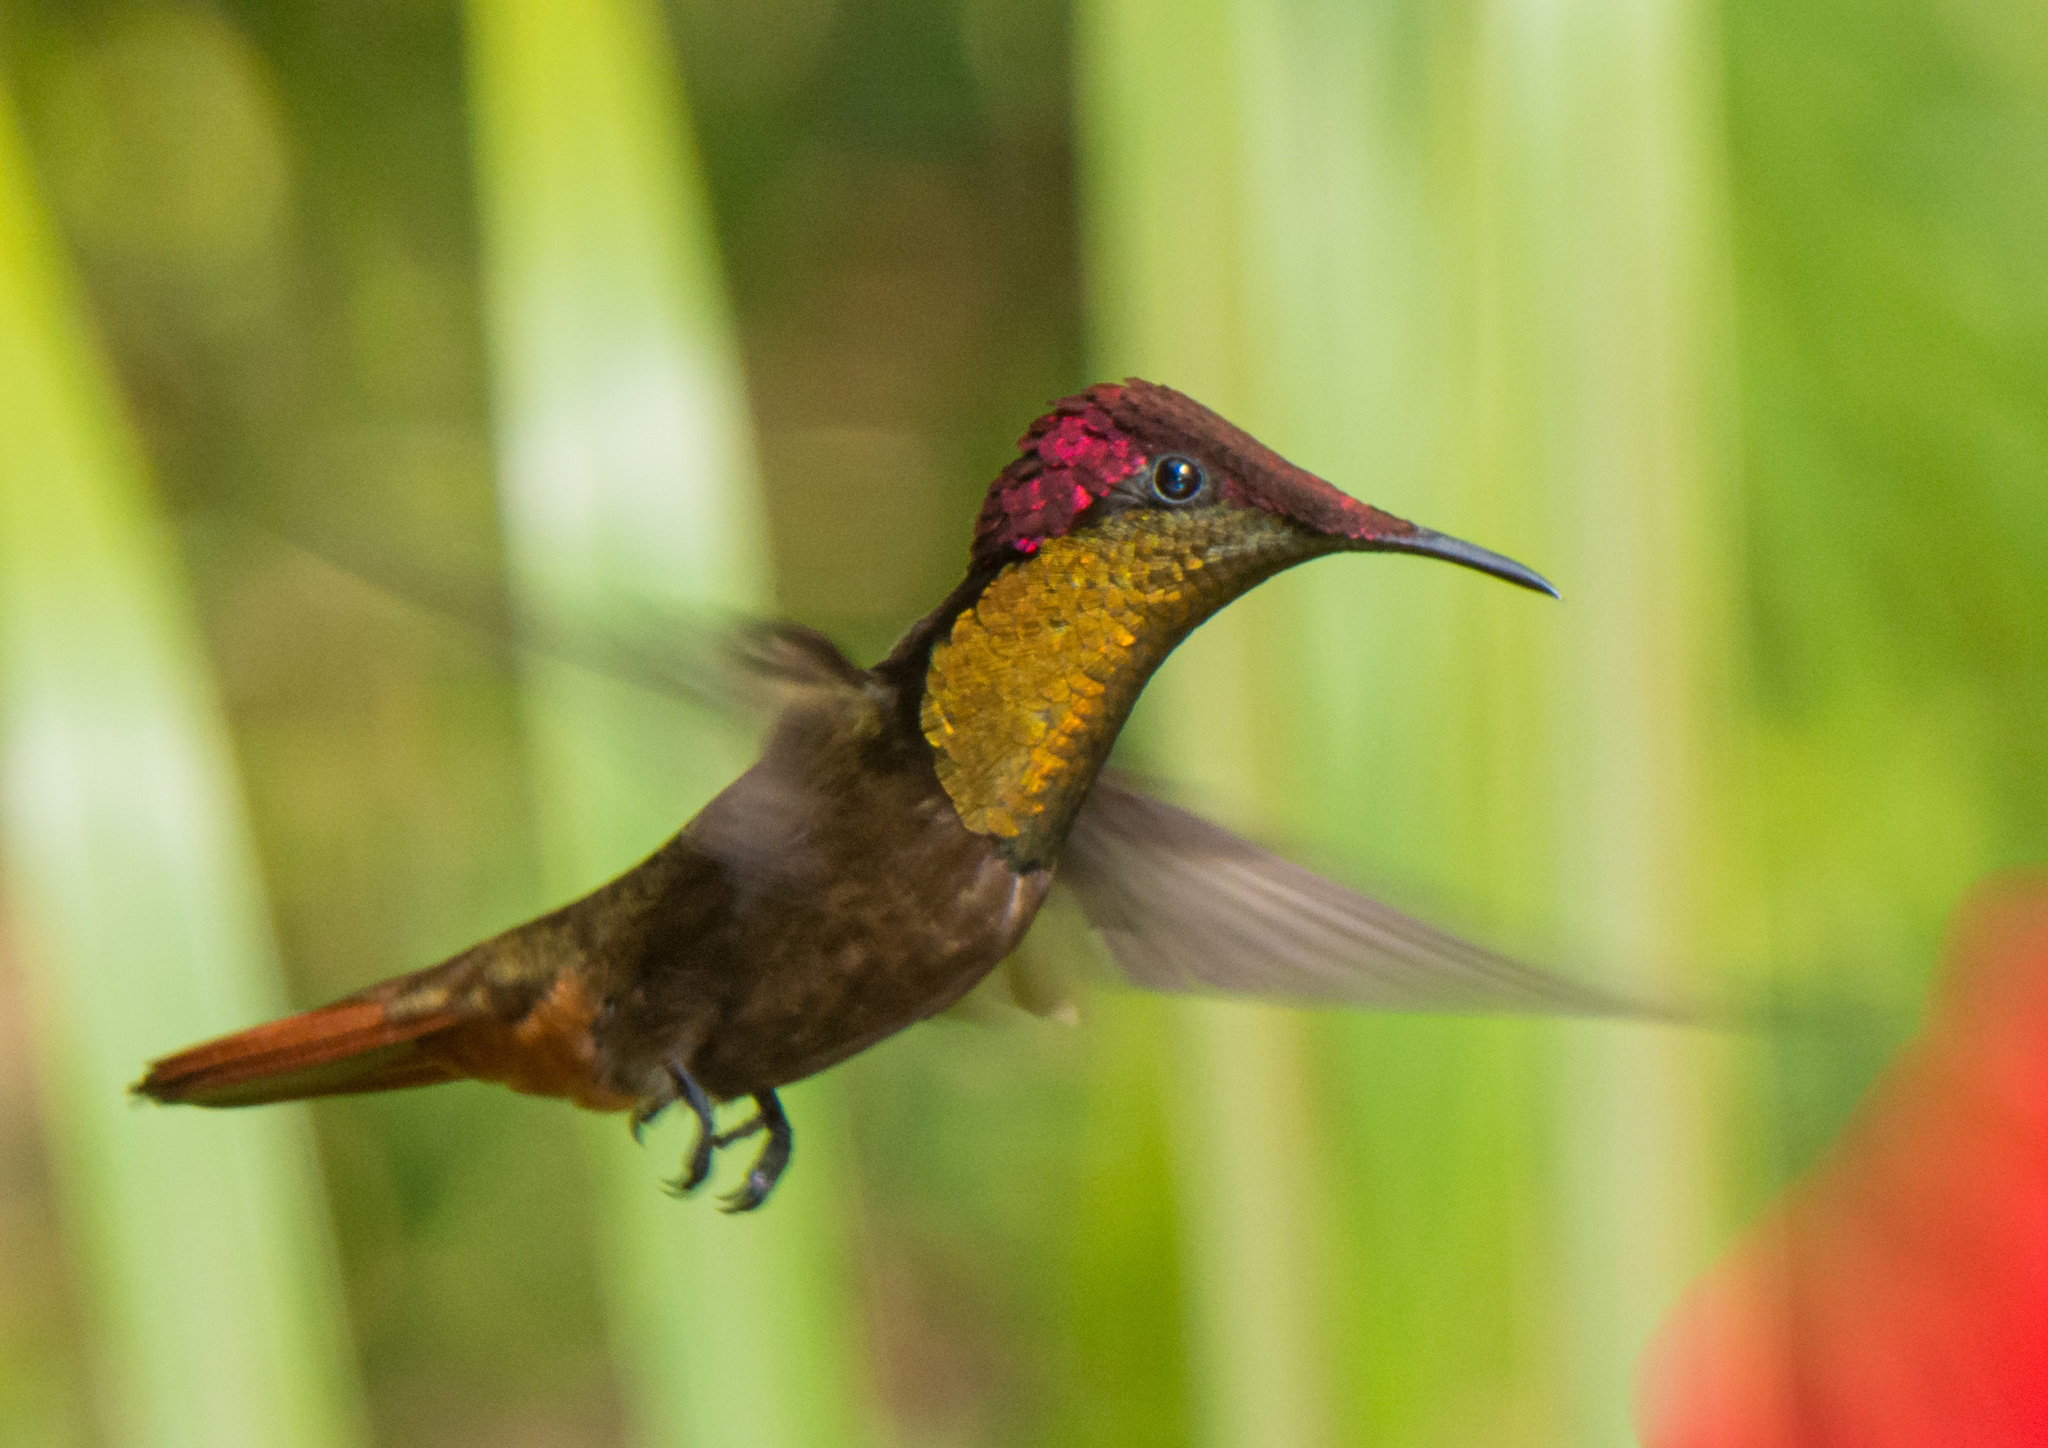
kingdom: Animalia
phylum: Chordata
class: Aves
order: Apodiformes
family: Trochilidae
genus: Chrysolampis
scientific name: Chrysolampis mosquitus
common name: Ruby-topaz hummingbird
